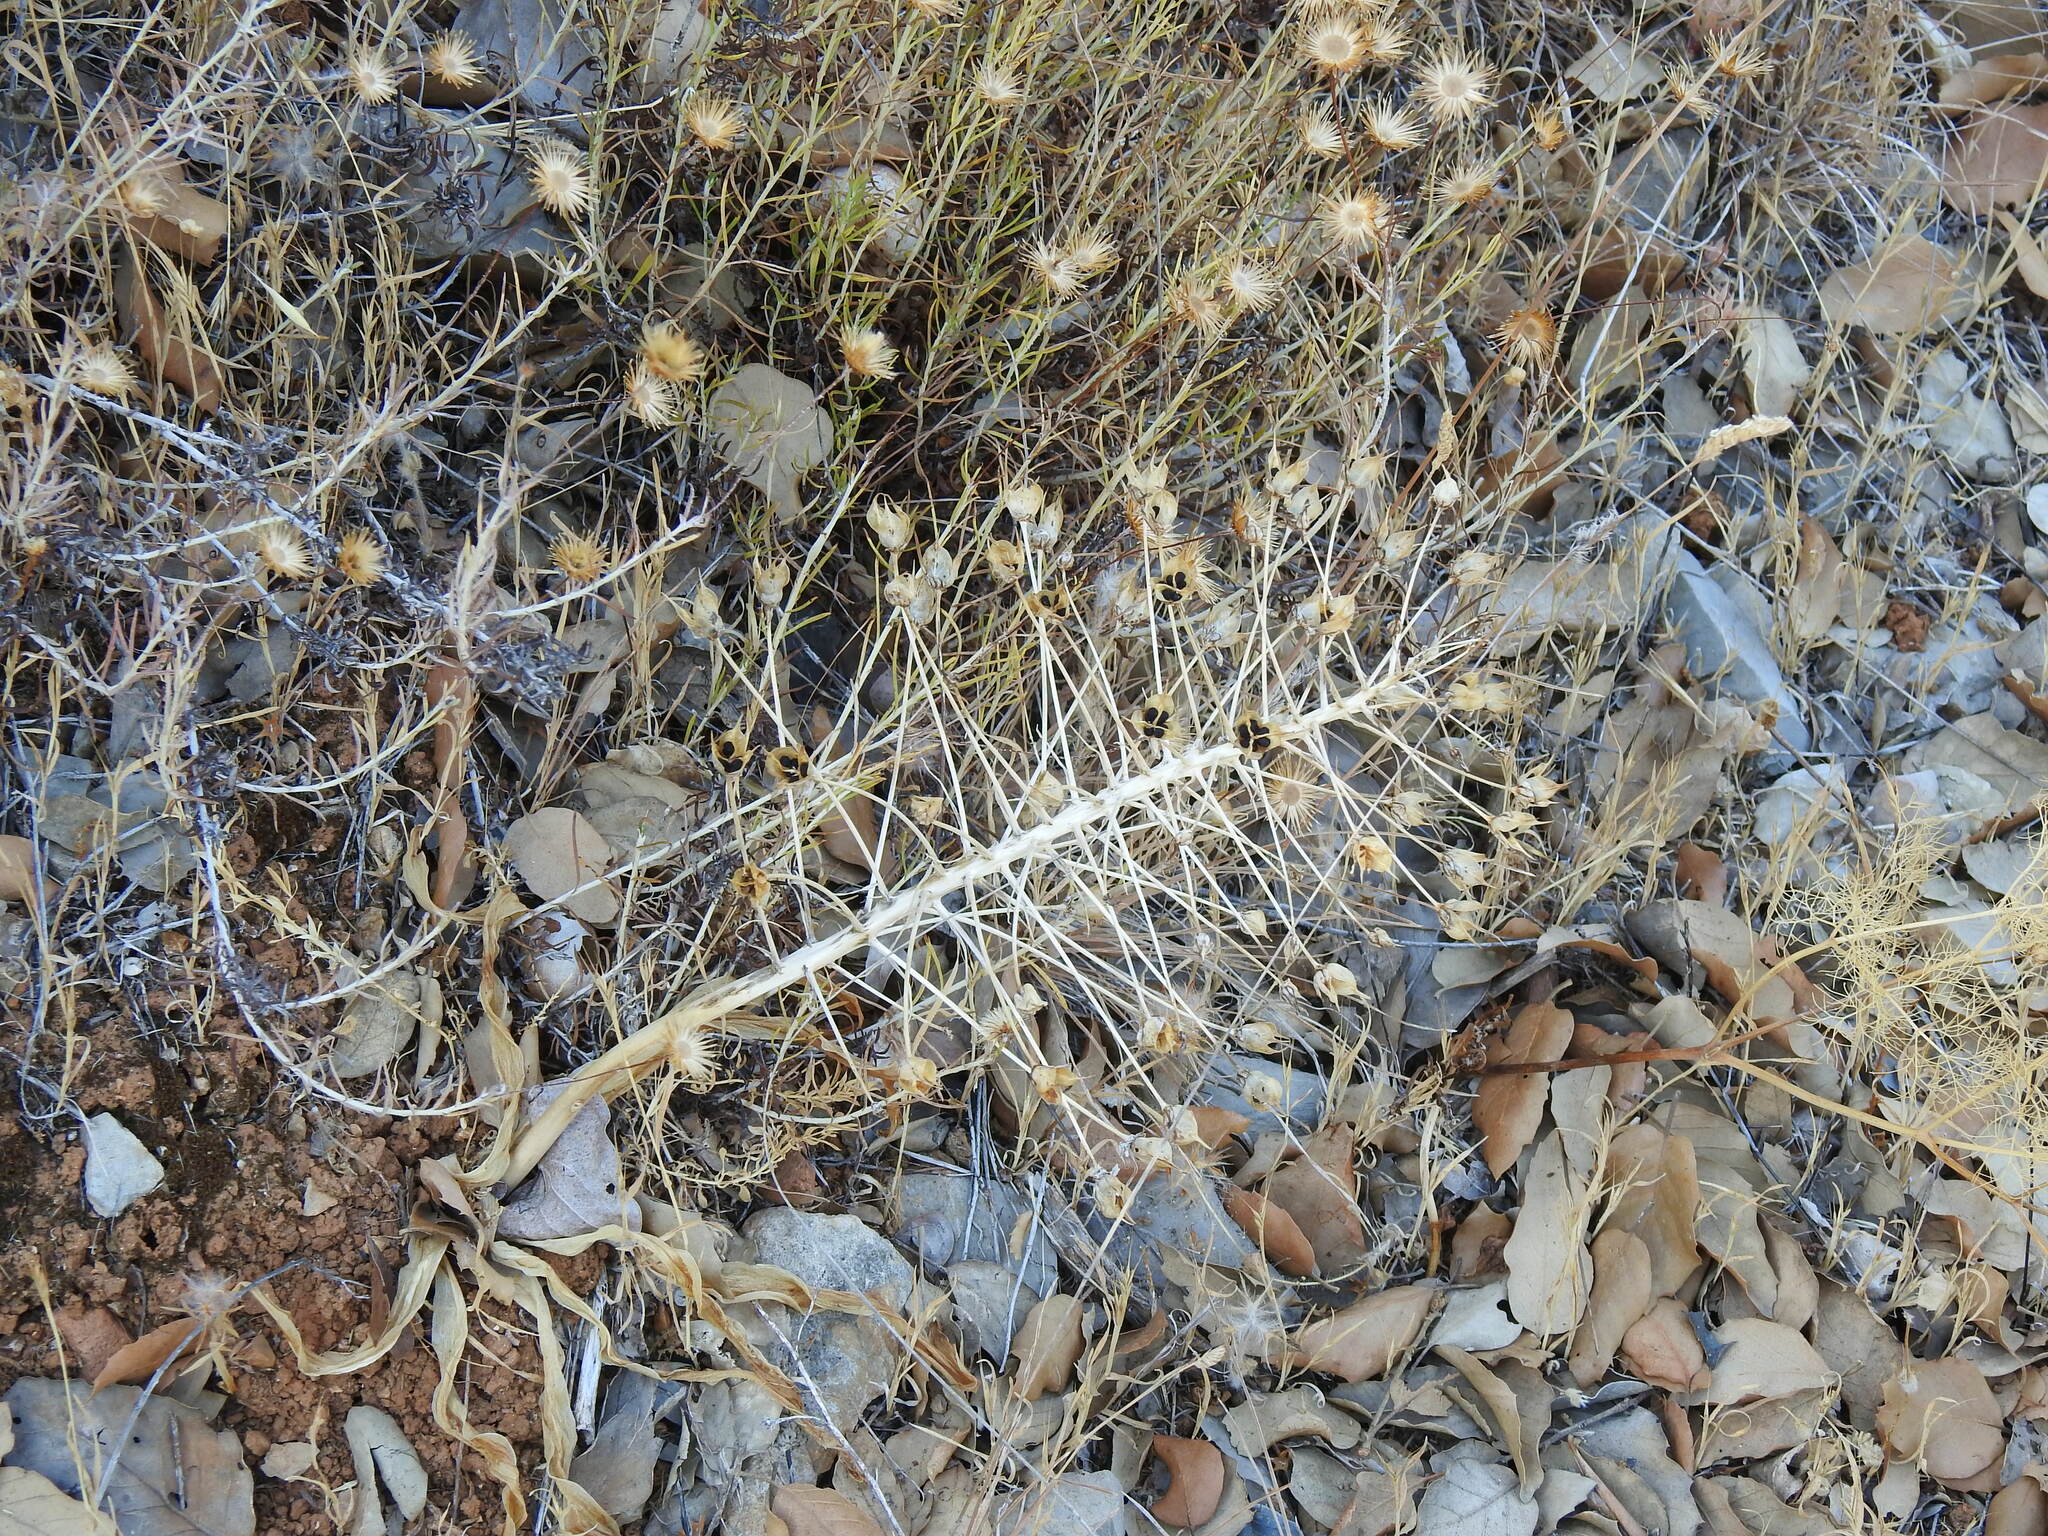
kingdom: Plantae
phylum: Tracheophyta
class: Liliopsida
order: Asparagales
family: Asparagaceae
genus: Scilla
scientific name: Scilla peruviana
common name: Portuguese squill
